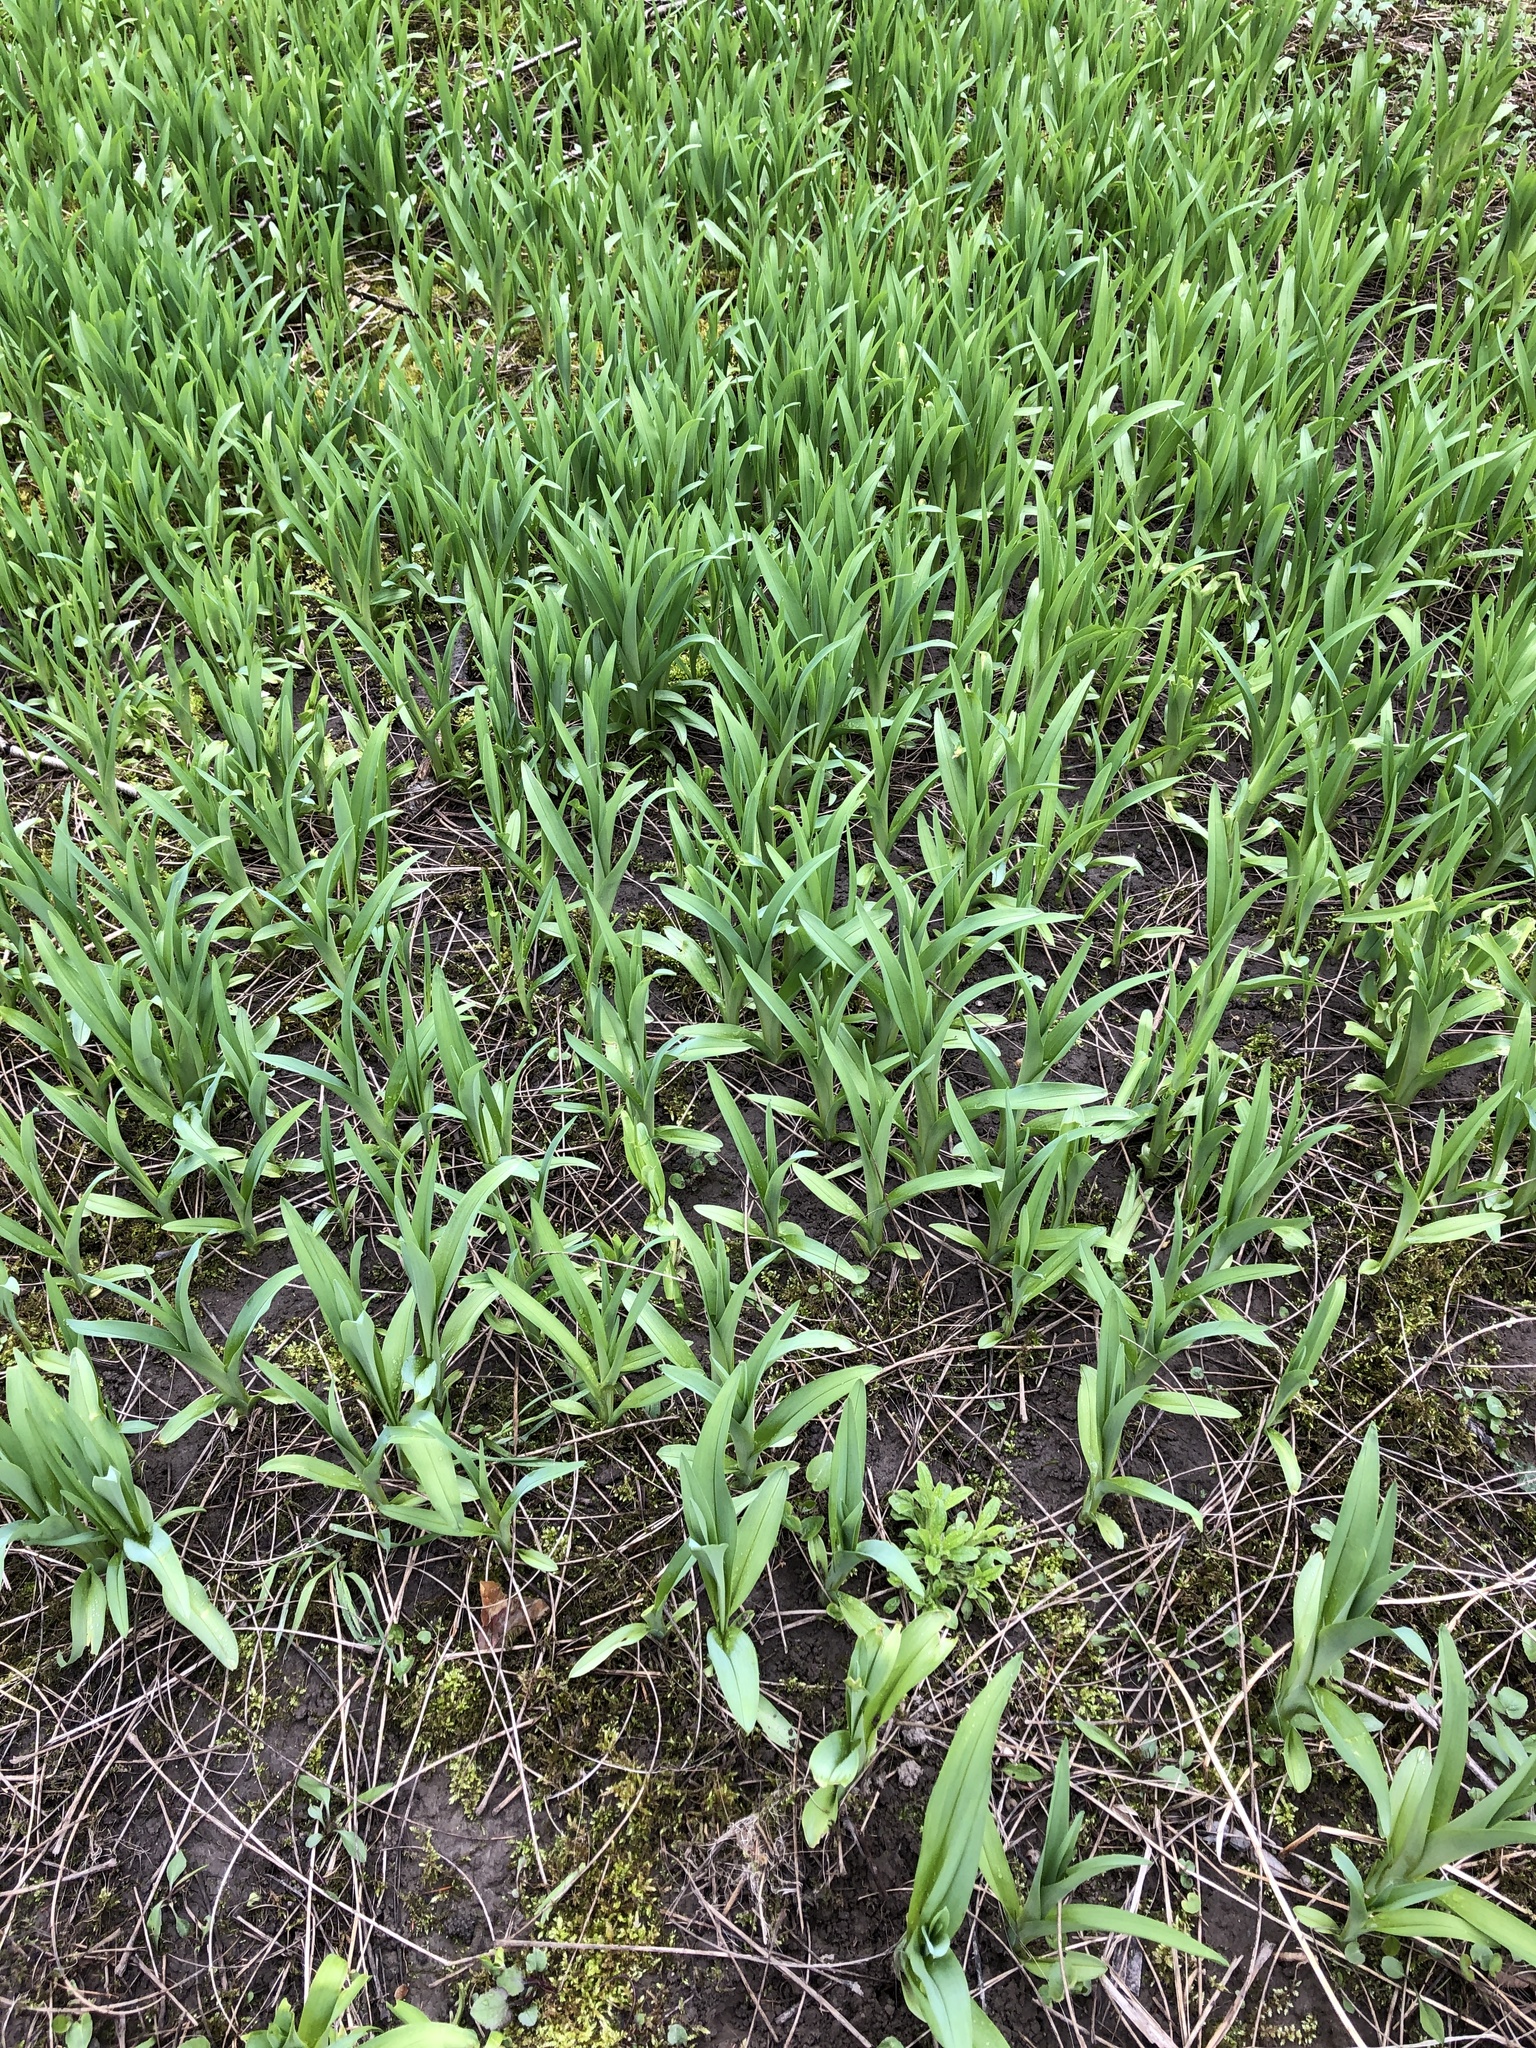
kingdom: Plantae
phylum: Tracheophyta
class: Liliopsida
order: Asparagales
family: Asphodelaceae
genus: Hemerocallis
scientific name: Hemerocallis fulva
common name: Orange day-lily
